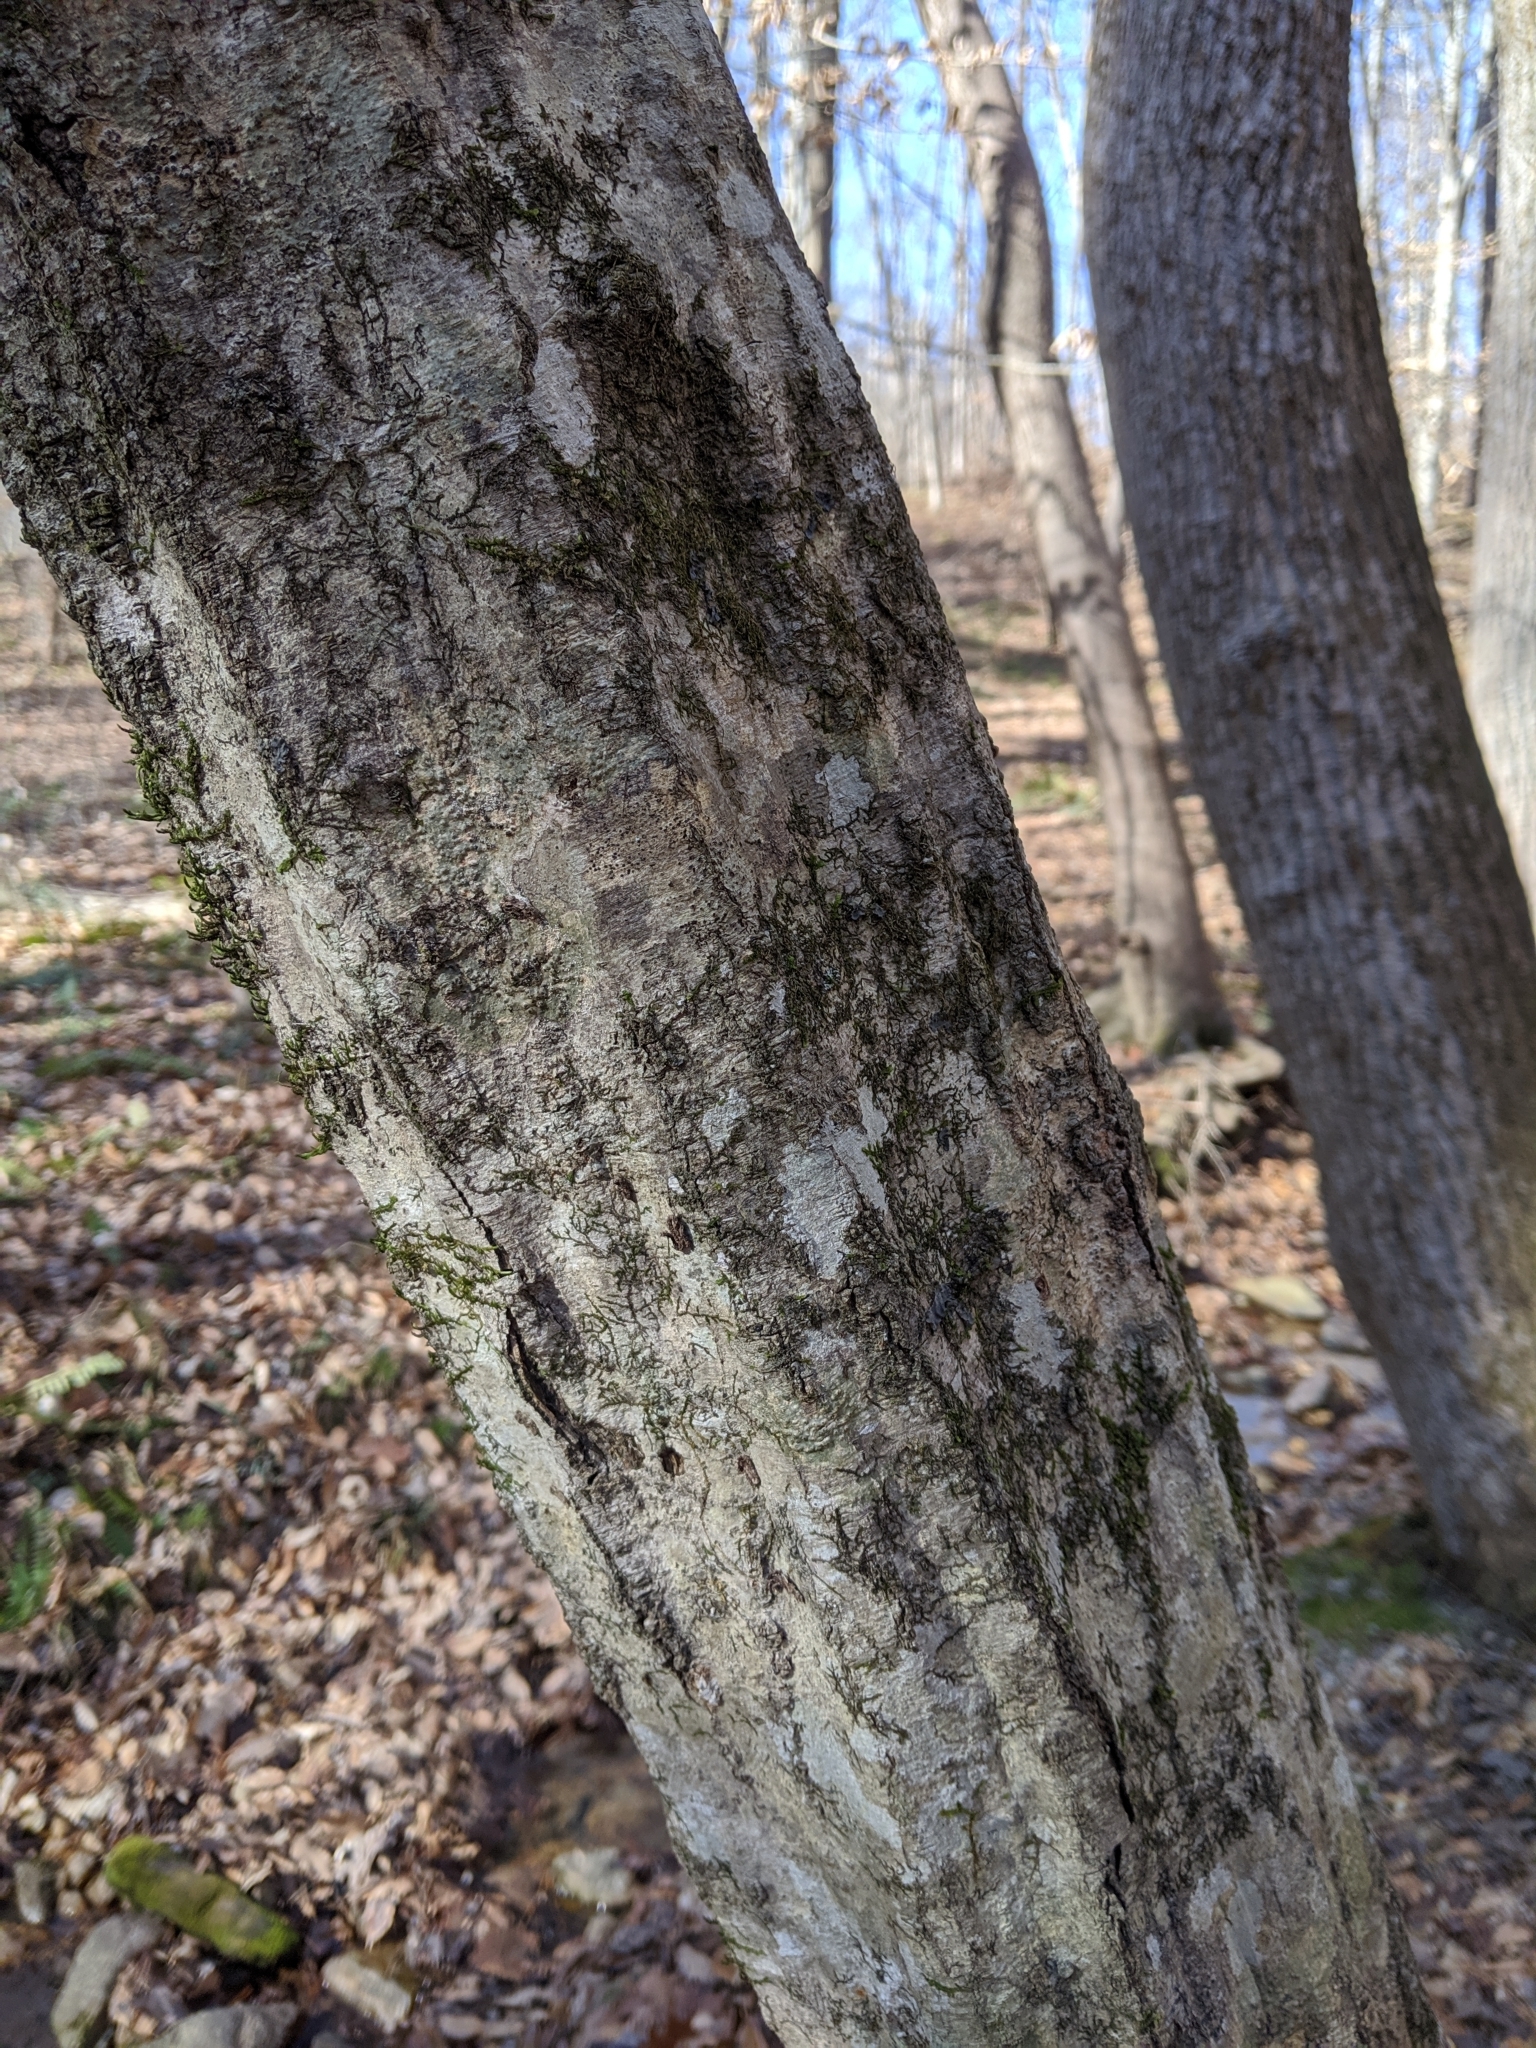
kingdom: Plantae
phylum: Tracheophyta
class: Magnoliopsida
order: Fagales
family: Betulaceae
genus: Carpinus
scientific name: Carpinus caroliniana
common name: American hornbeam
